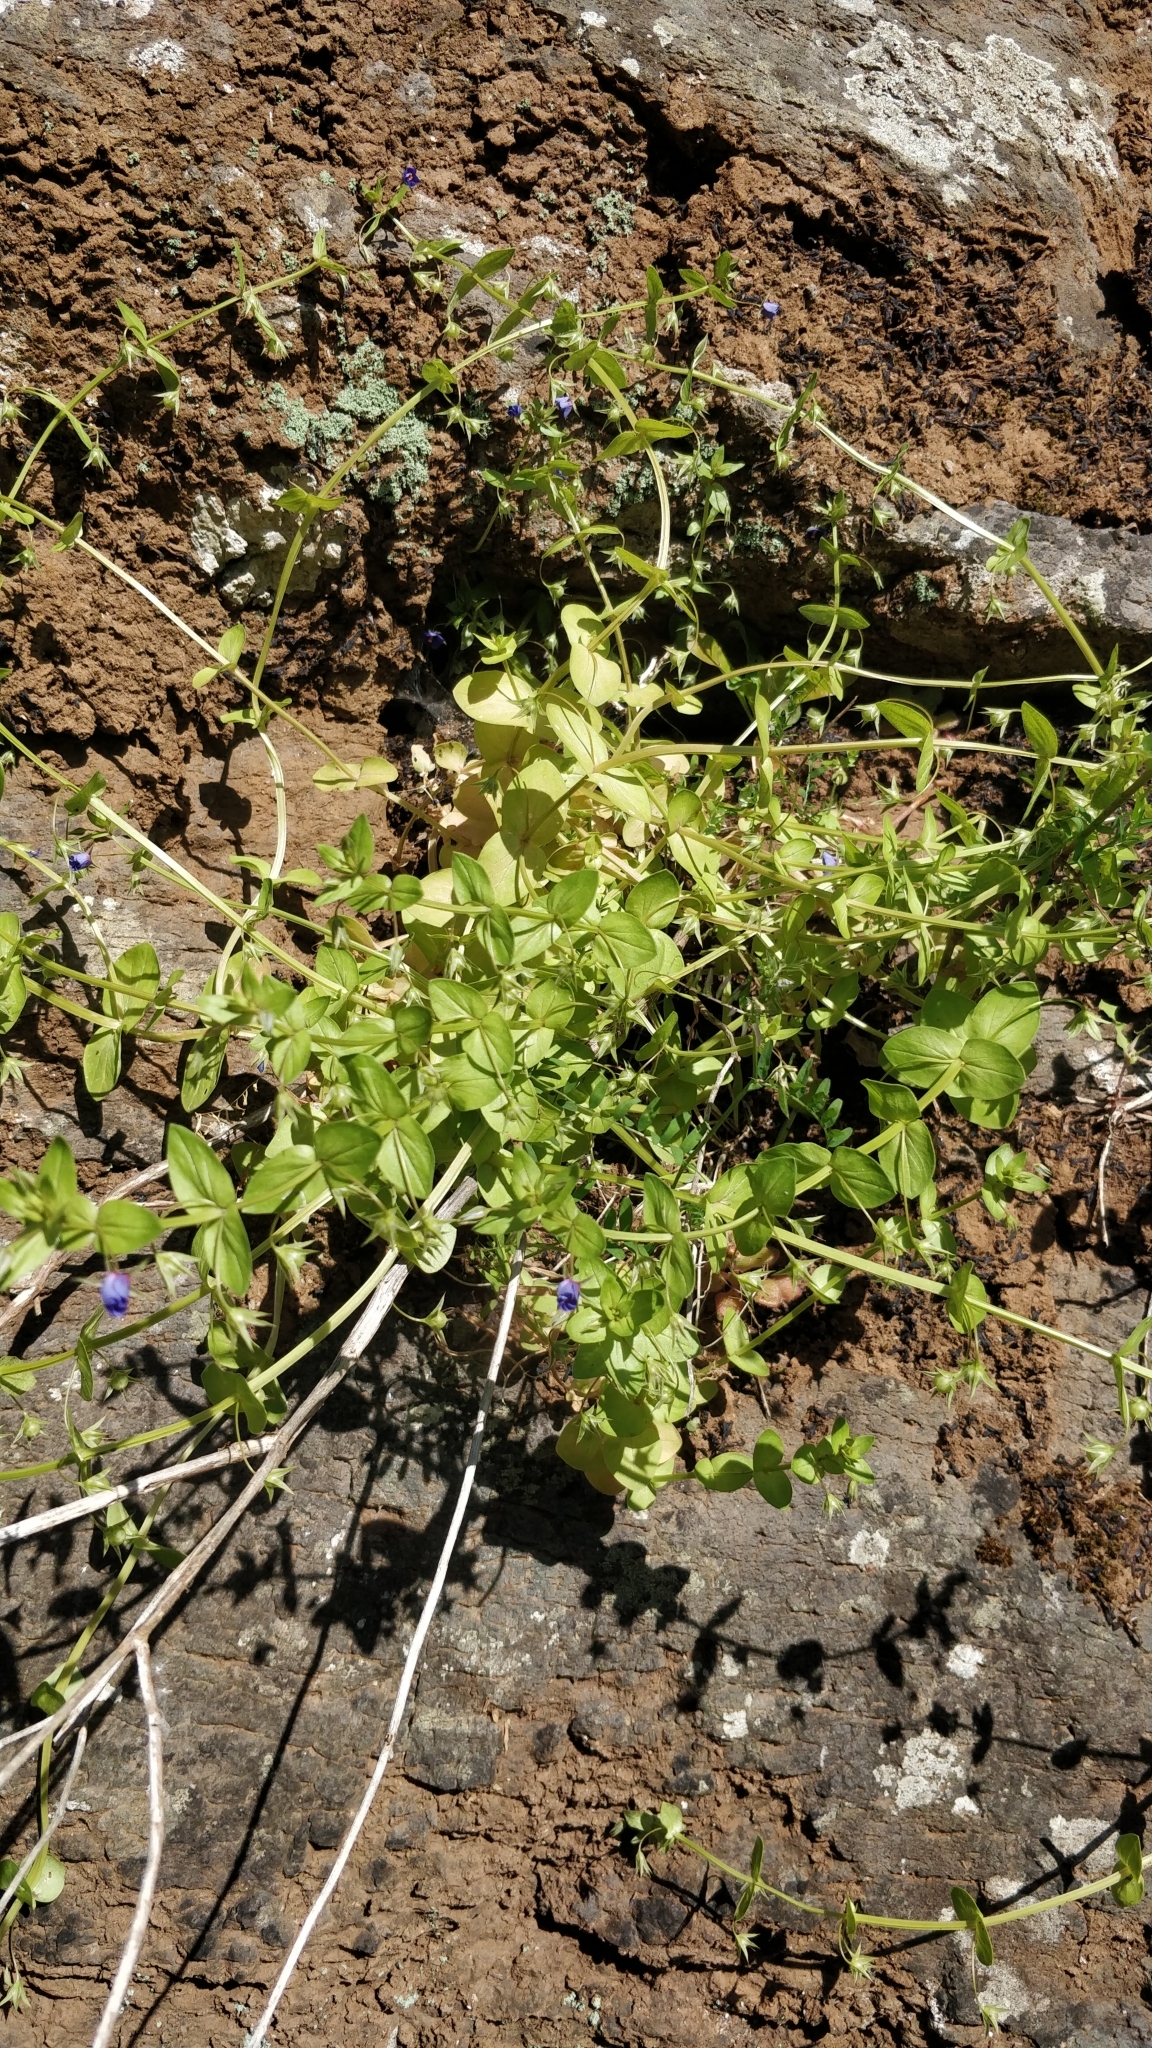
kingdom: Plantae
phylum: Tracheophyta
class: Magnoliopsida
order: Ericales
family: Primulaceae
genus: Lysimachia
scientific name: Lysimachia loeflingii
